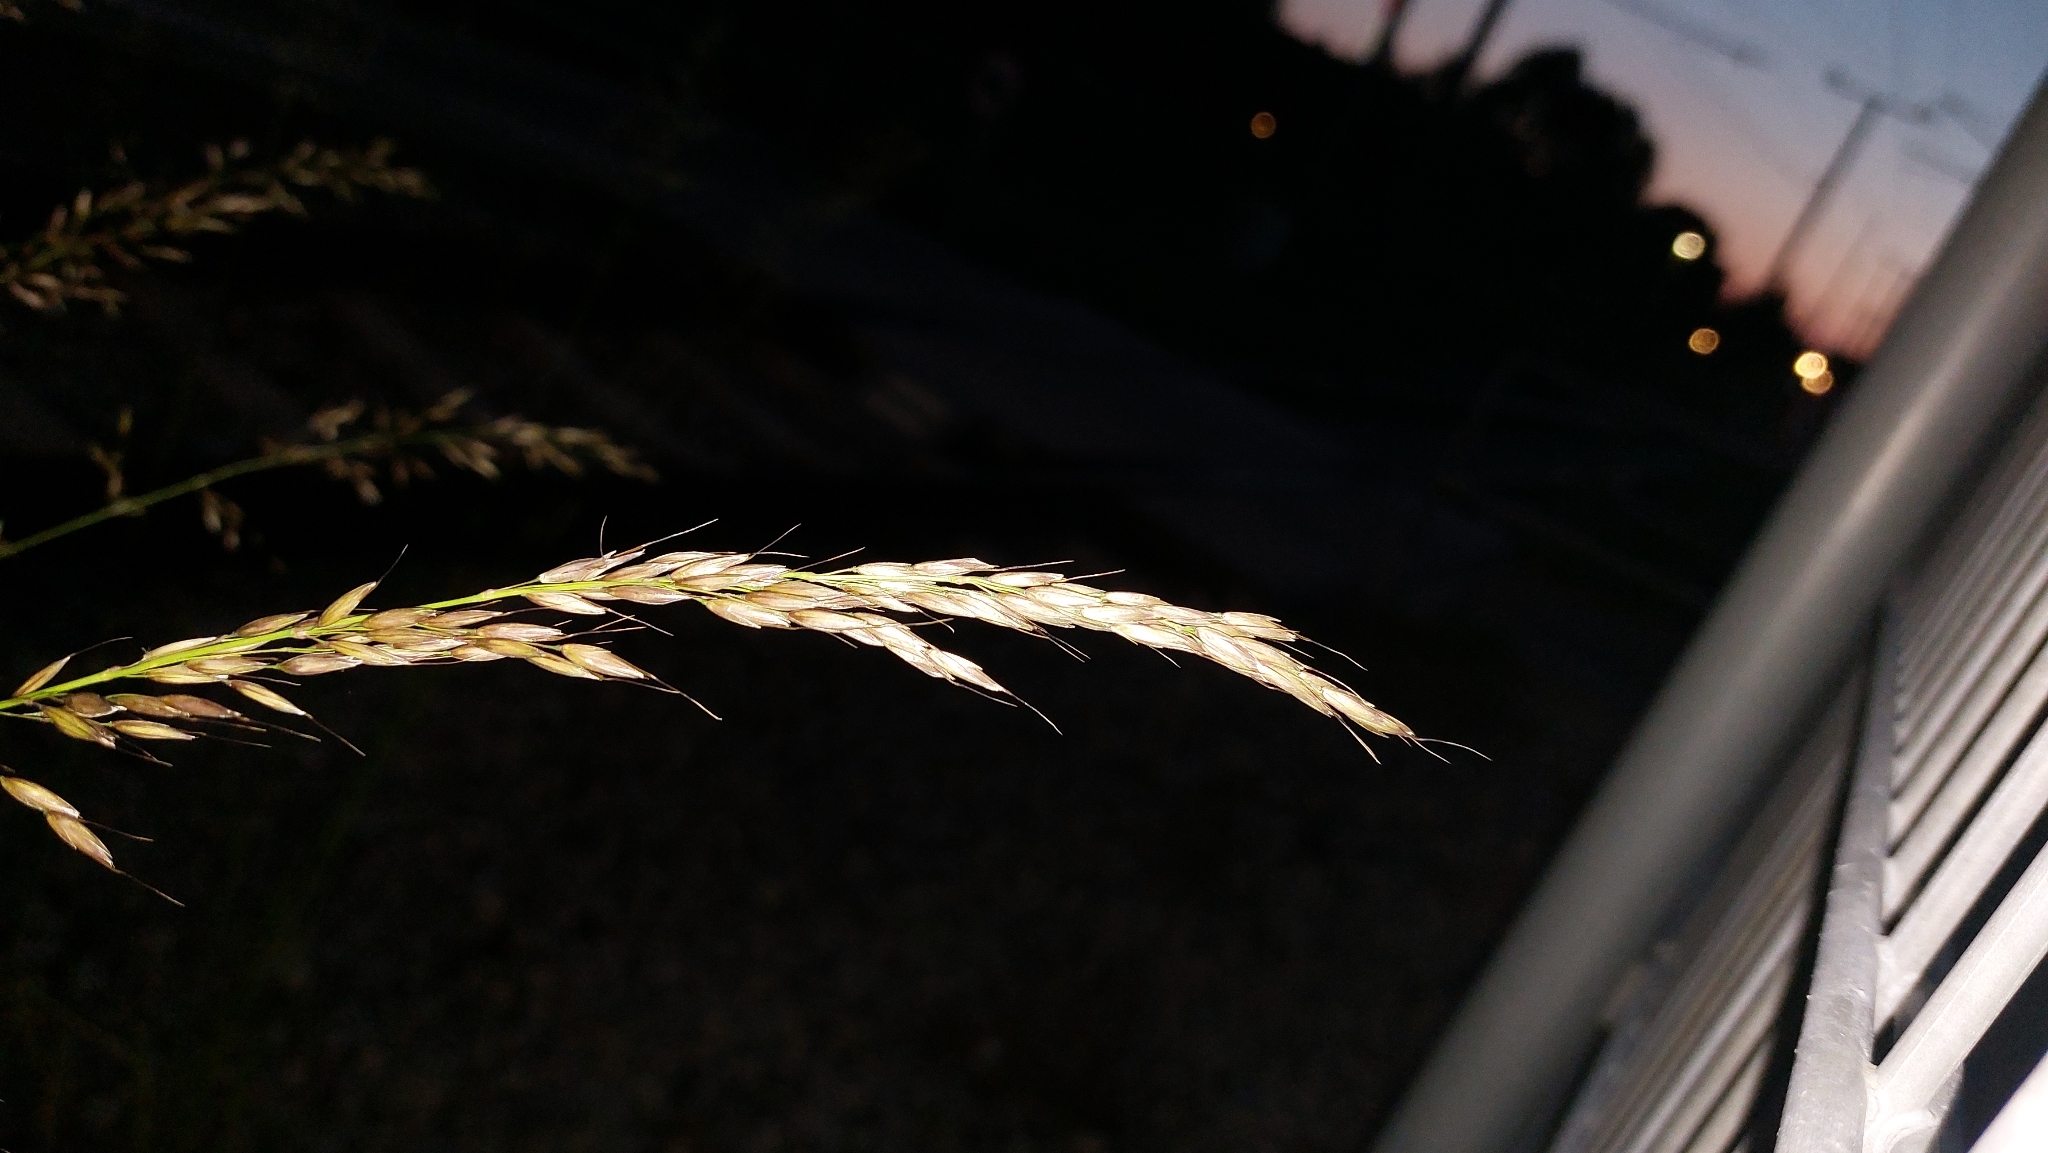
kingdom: Plantae
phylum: Tracheophyta
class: Liliopsida
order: Poales
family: Poaceae
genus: Arrhenatherum
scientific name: Arrhenatherum elatius
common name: Tall oatgrass
